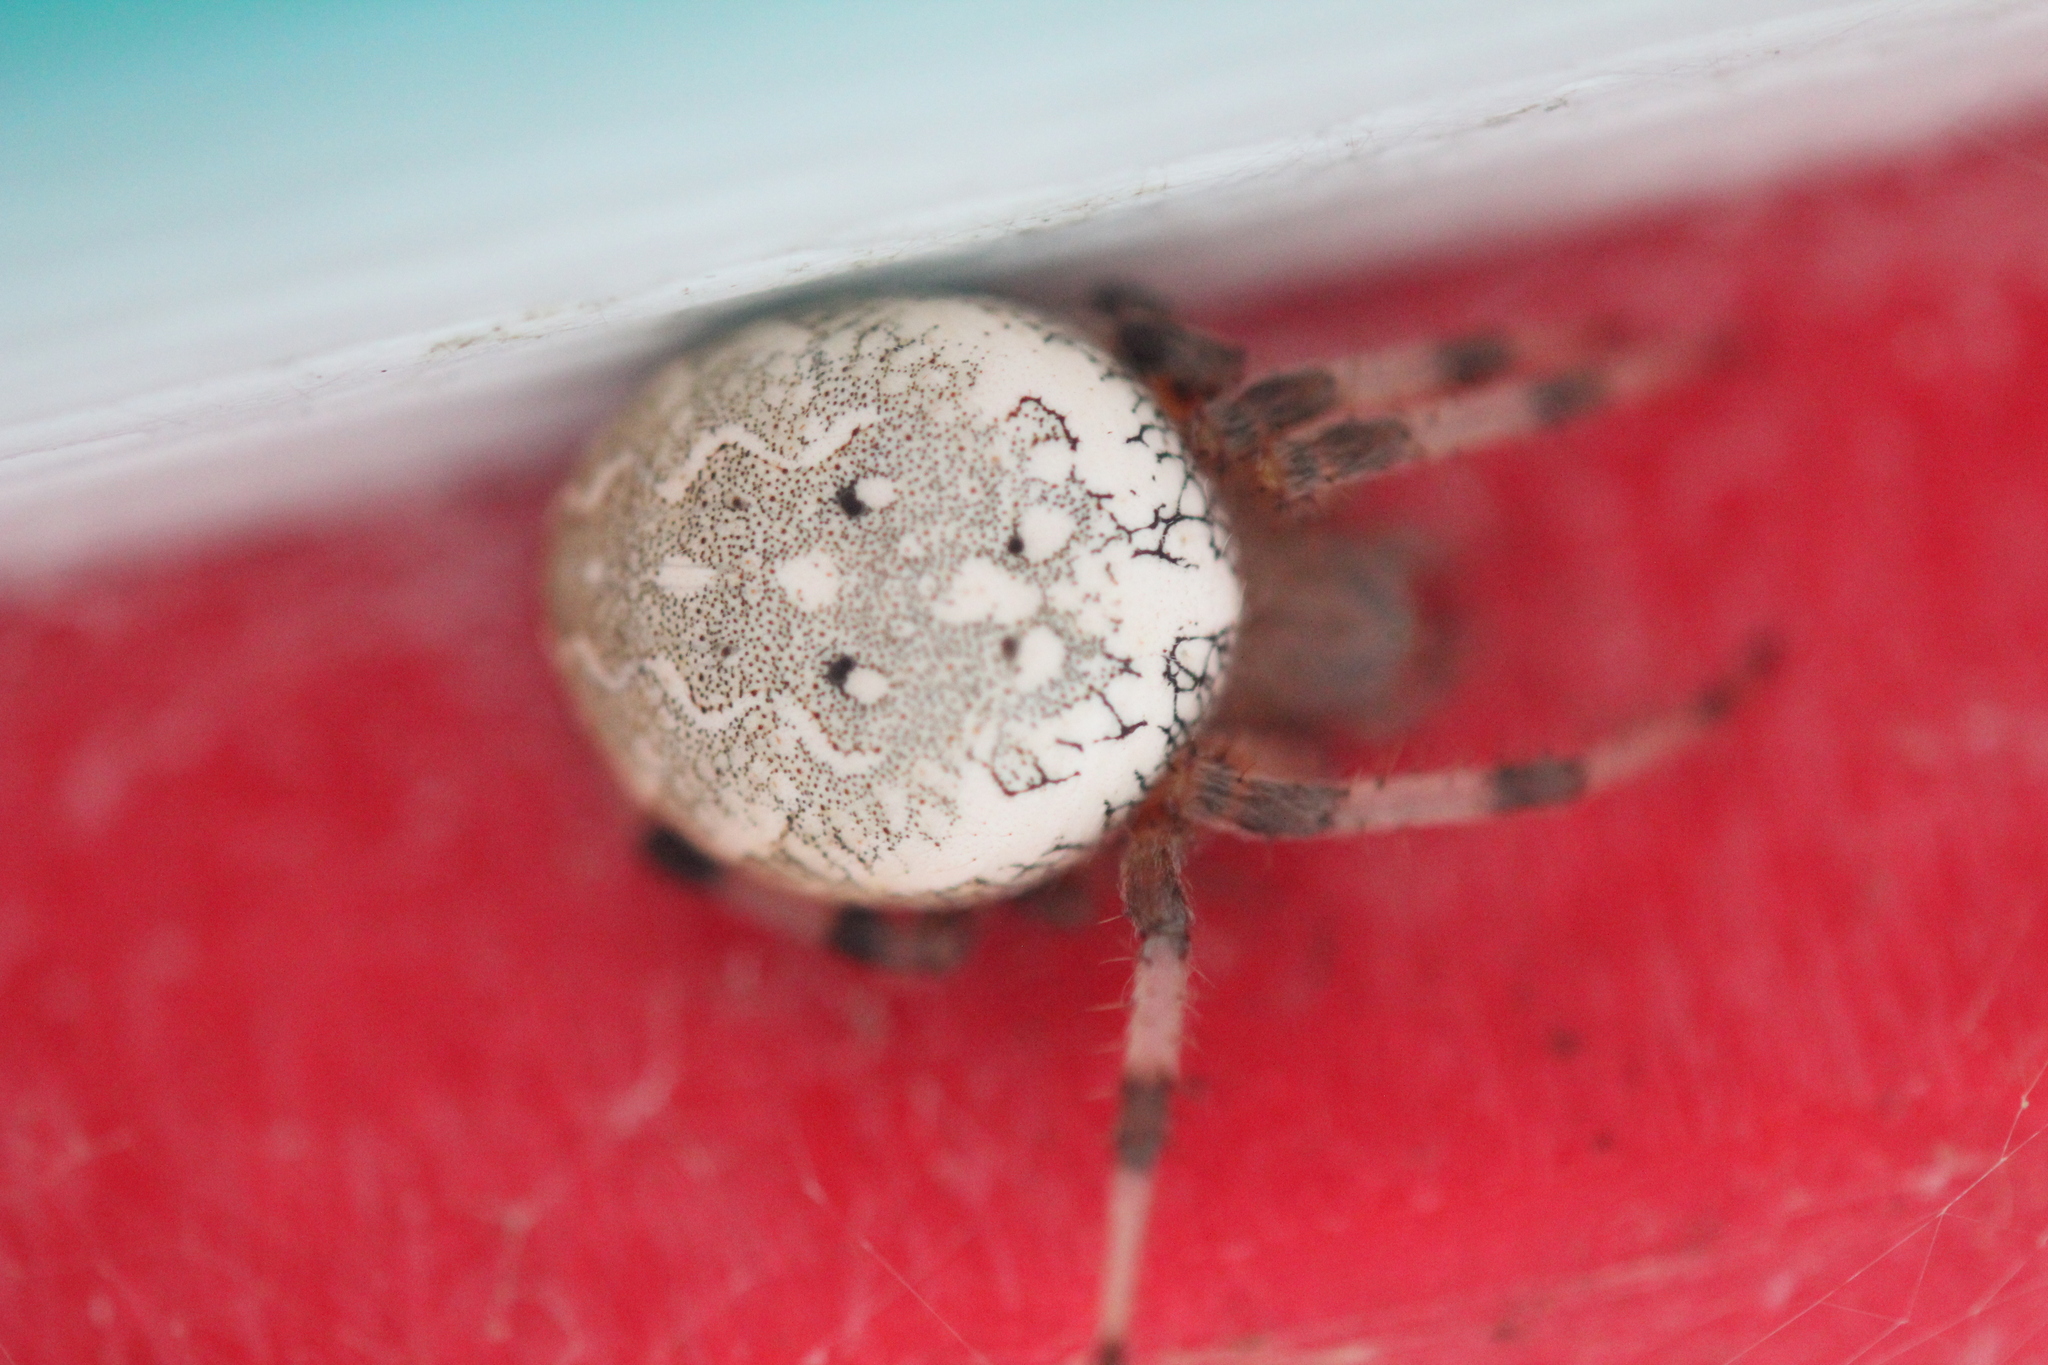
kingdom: Animalia
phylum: Arthropoda
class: Arachnida
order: Araneae
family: Araneidae
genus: Araneus
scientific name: Araneus marmoreus
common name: Marbled orbweaver
